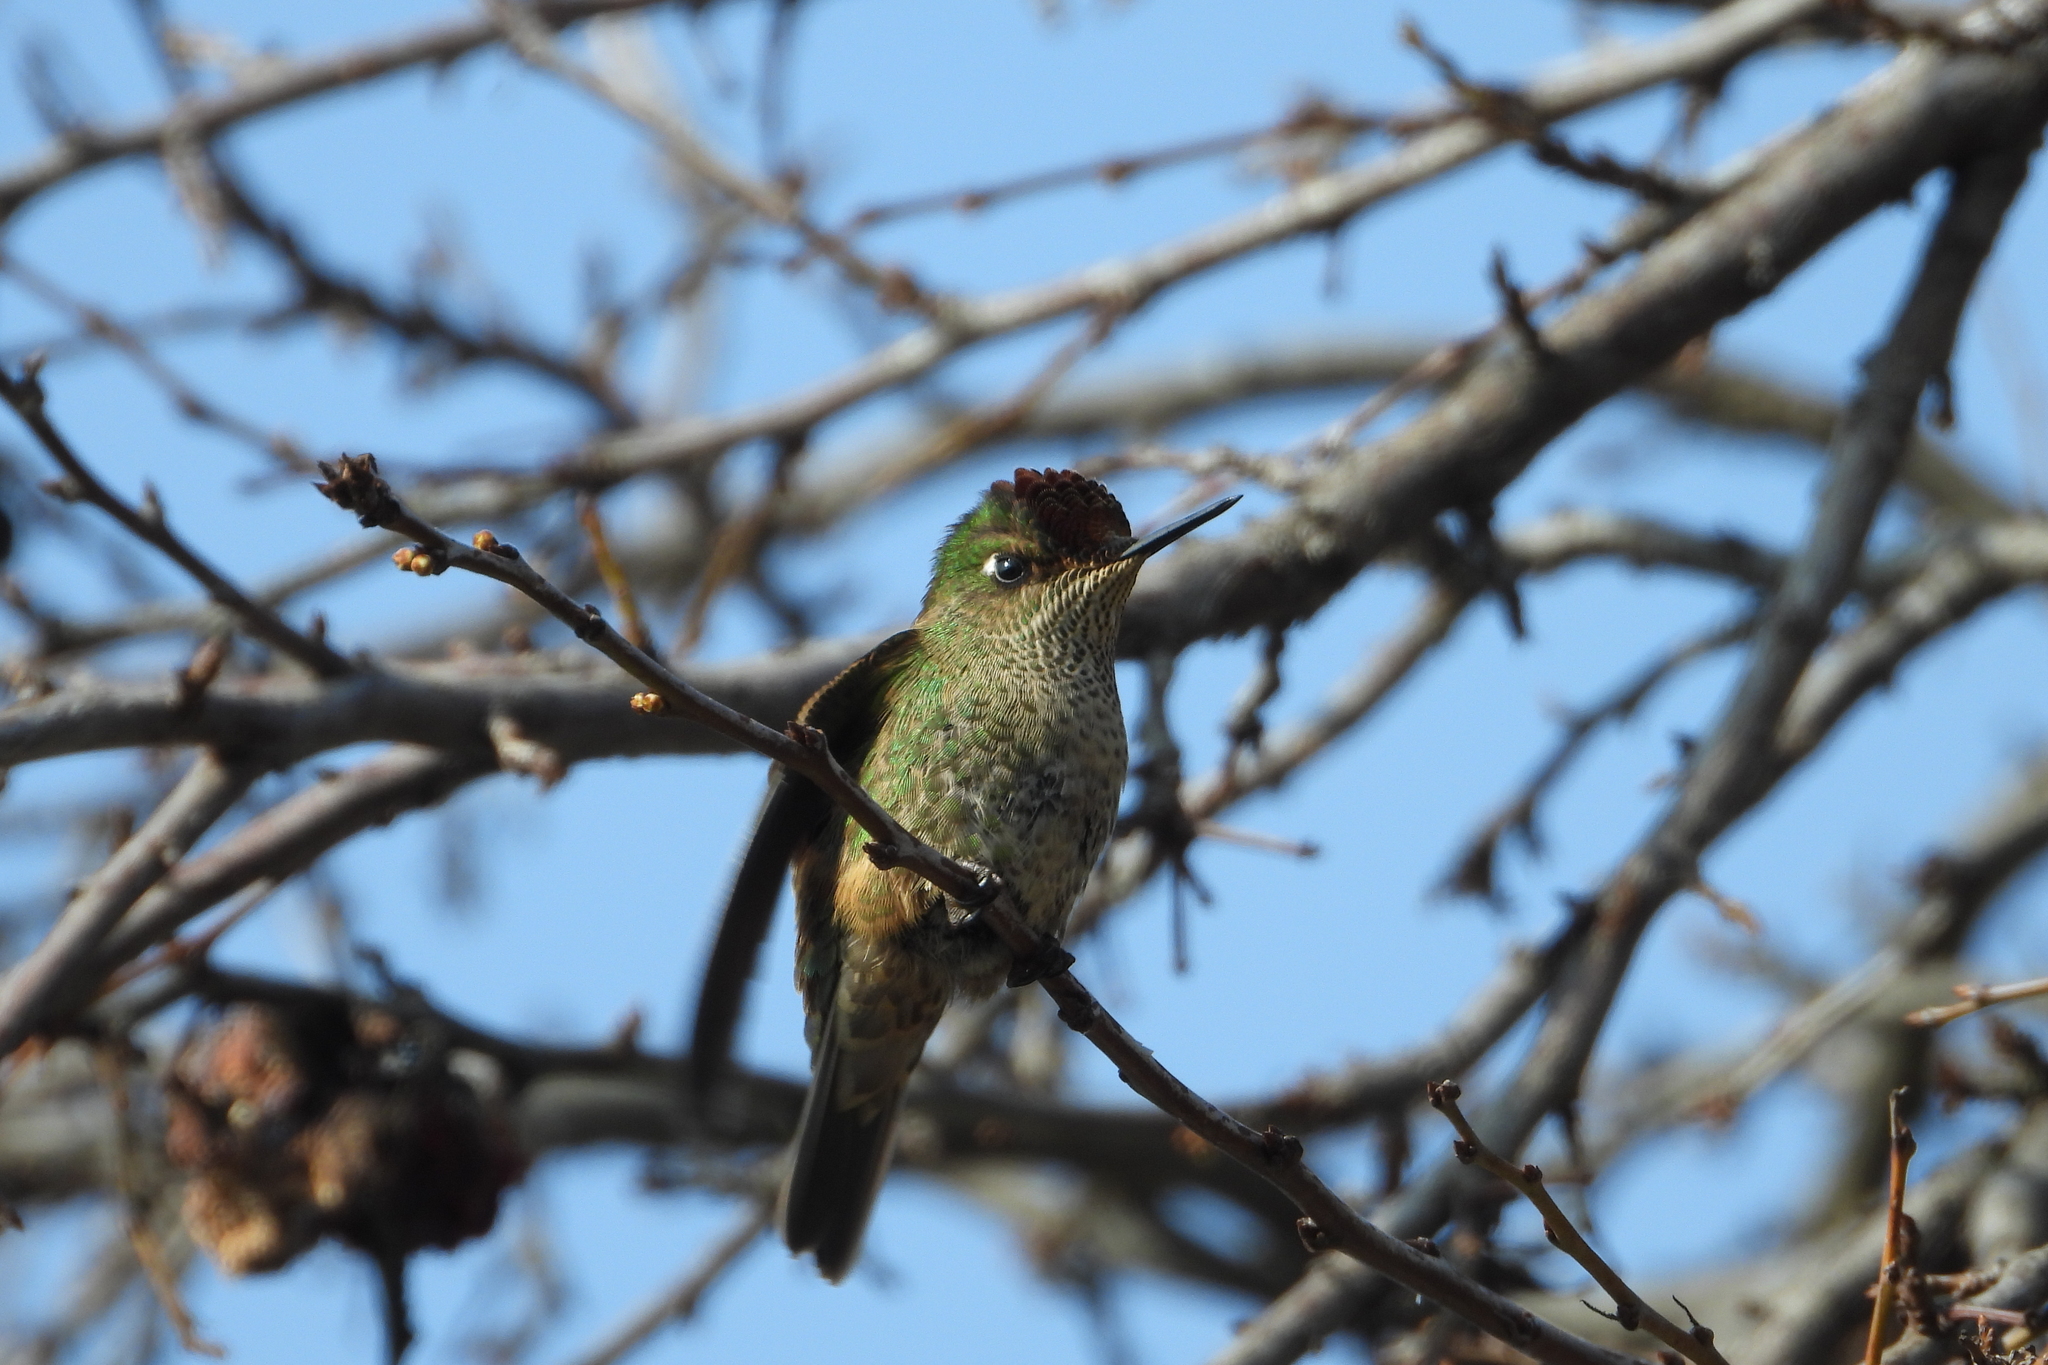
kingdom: Animalia
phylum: Chordata
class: Aves
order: Apodiformes
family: Trochilidae
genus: Sephanoides
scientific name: Sephanoides sephaniodes
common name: Green-backed firecrown
